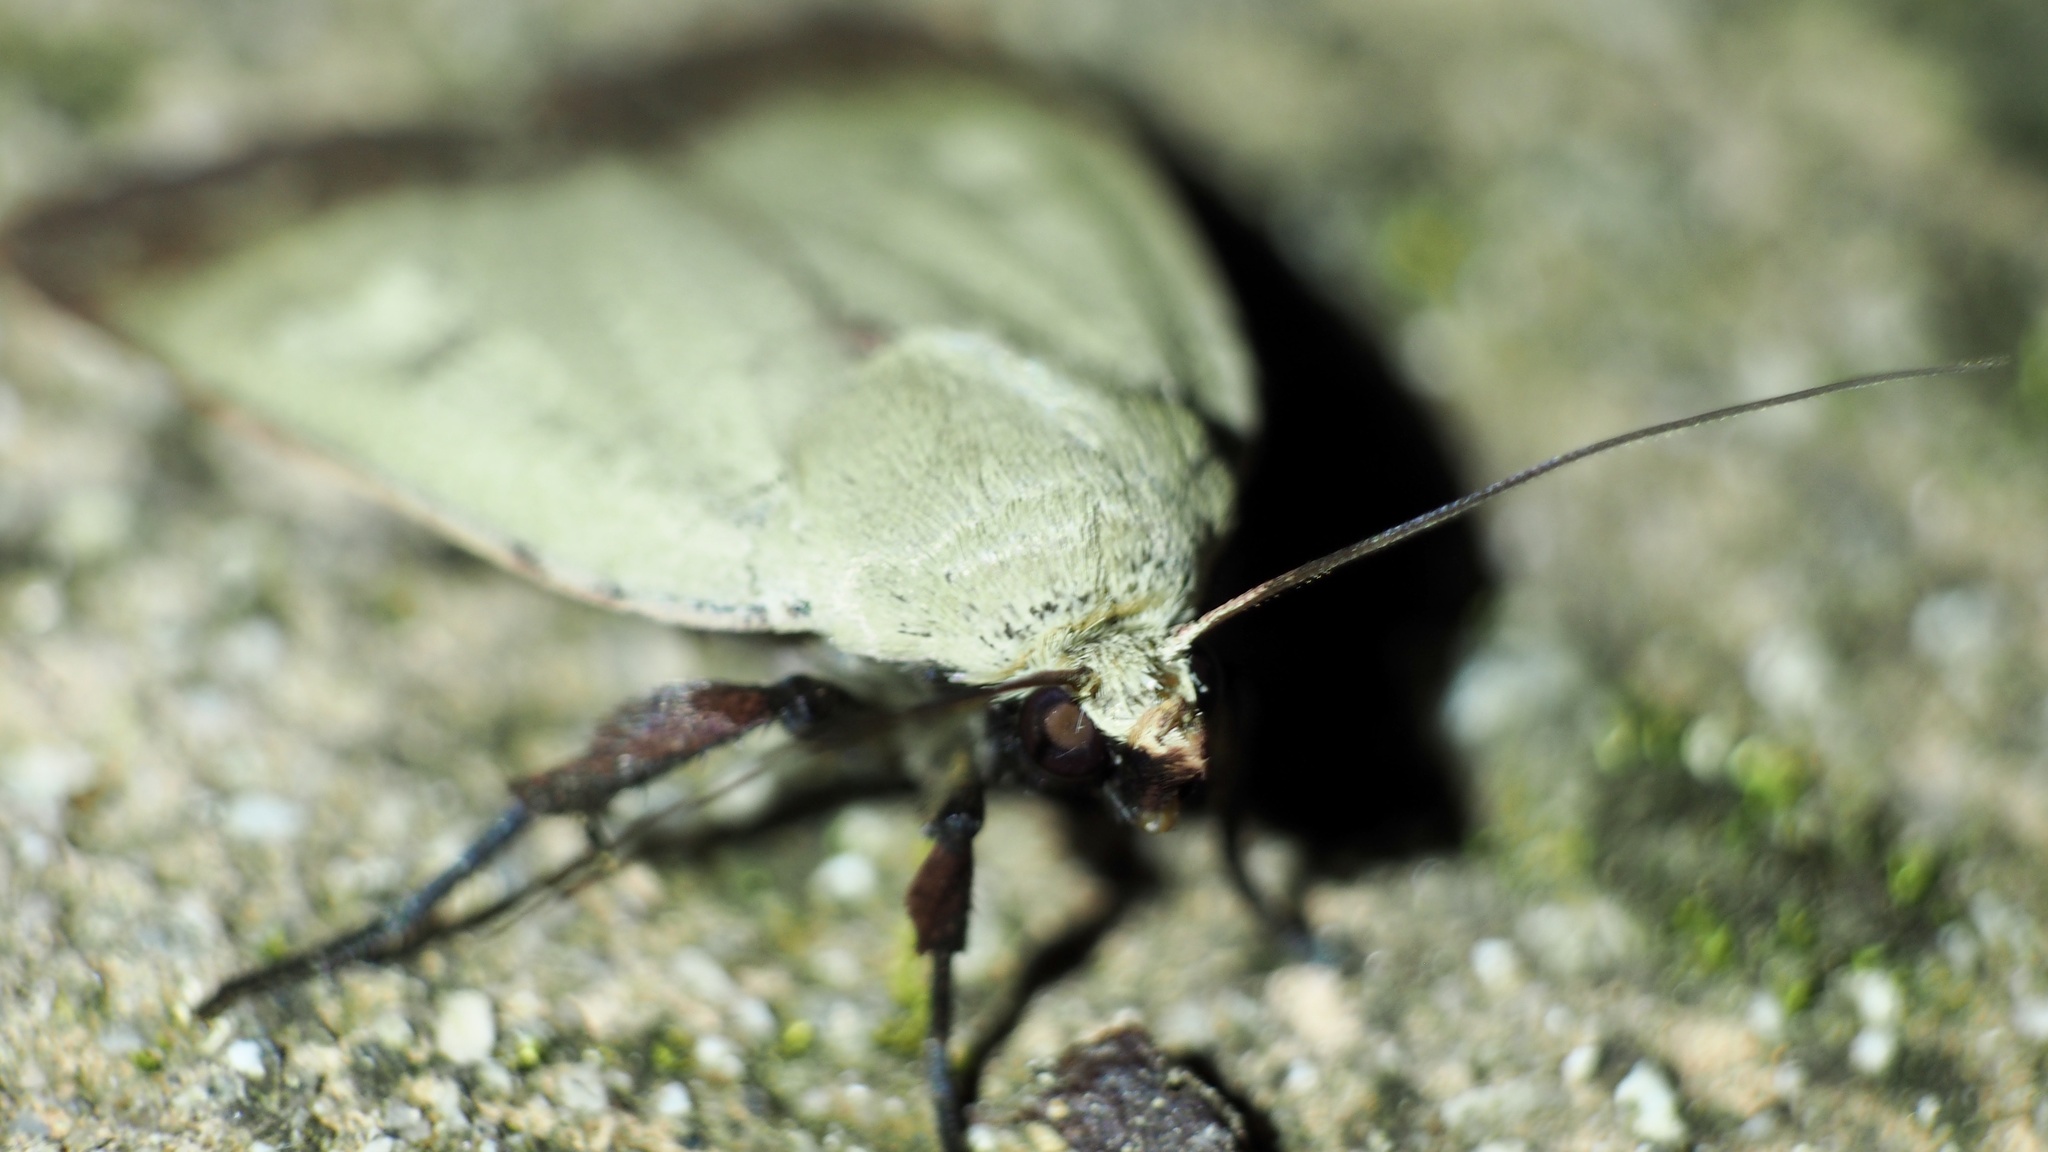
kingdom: Animalia
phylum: Arthropoda
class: Insecta
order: Lepidoptera
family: Noctuidae
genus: Sineugraphe
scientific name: Sineugraphe exusta
